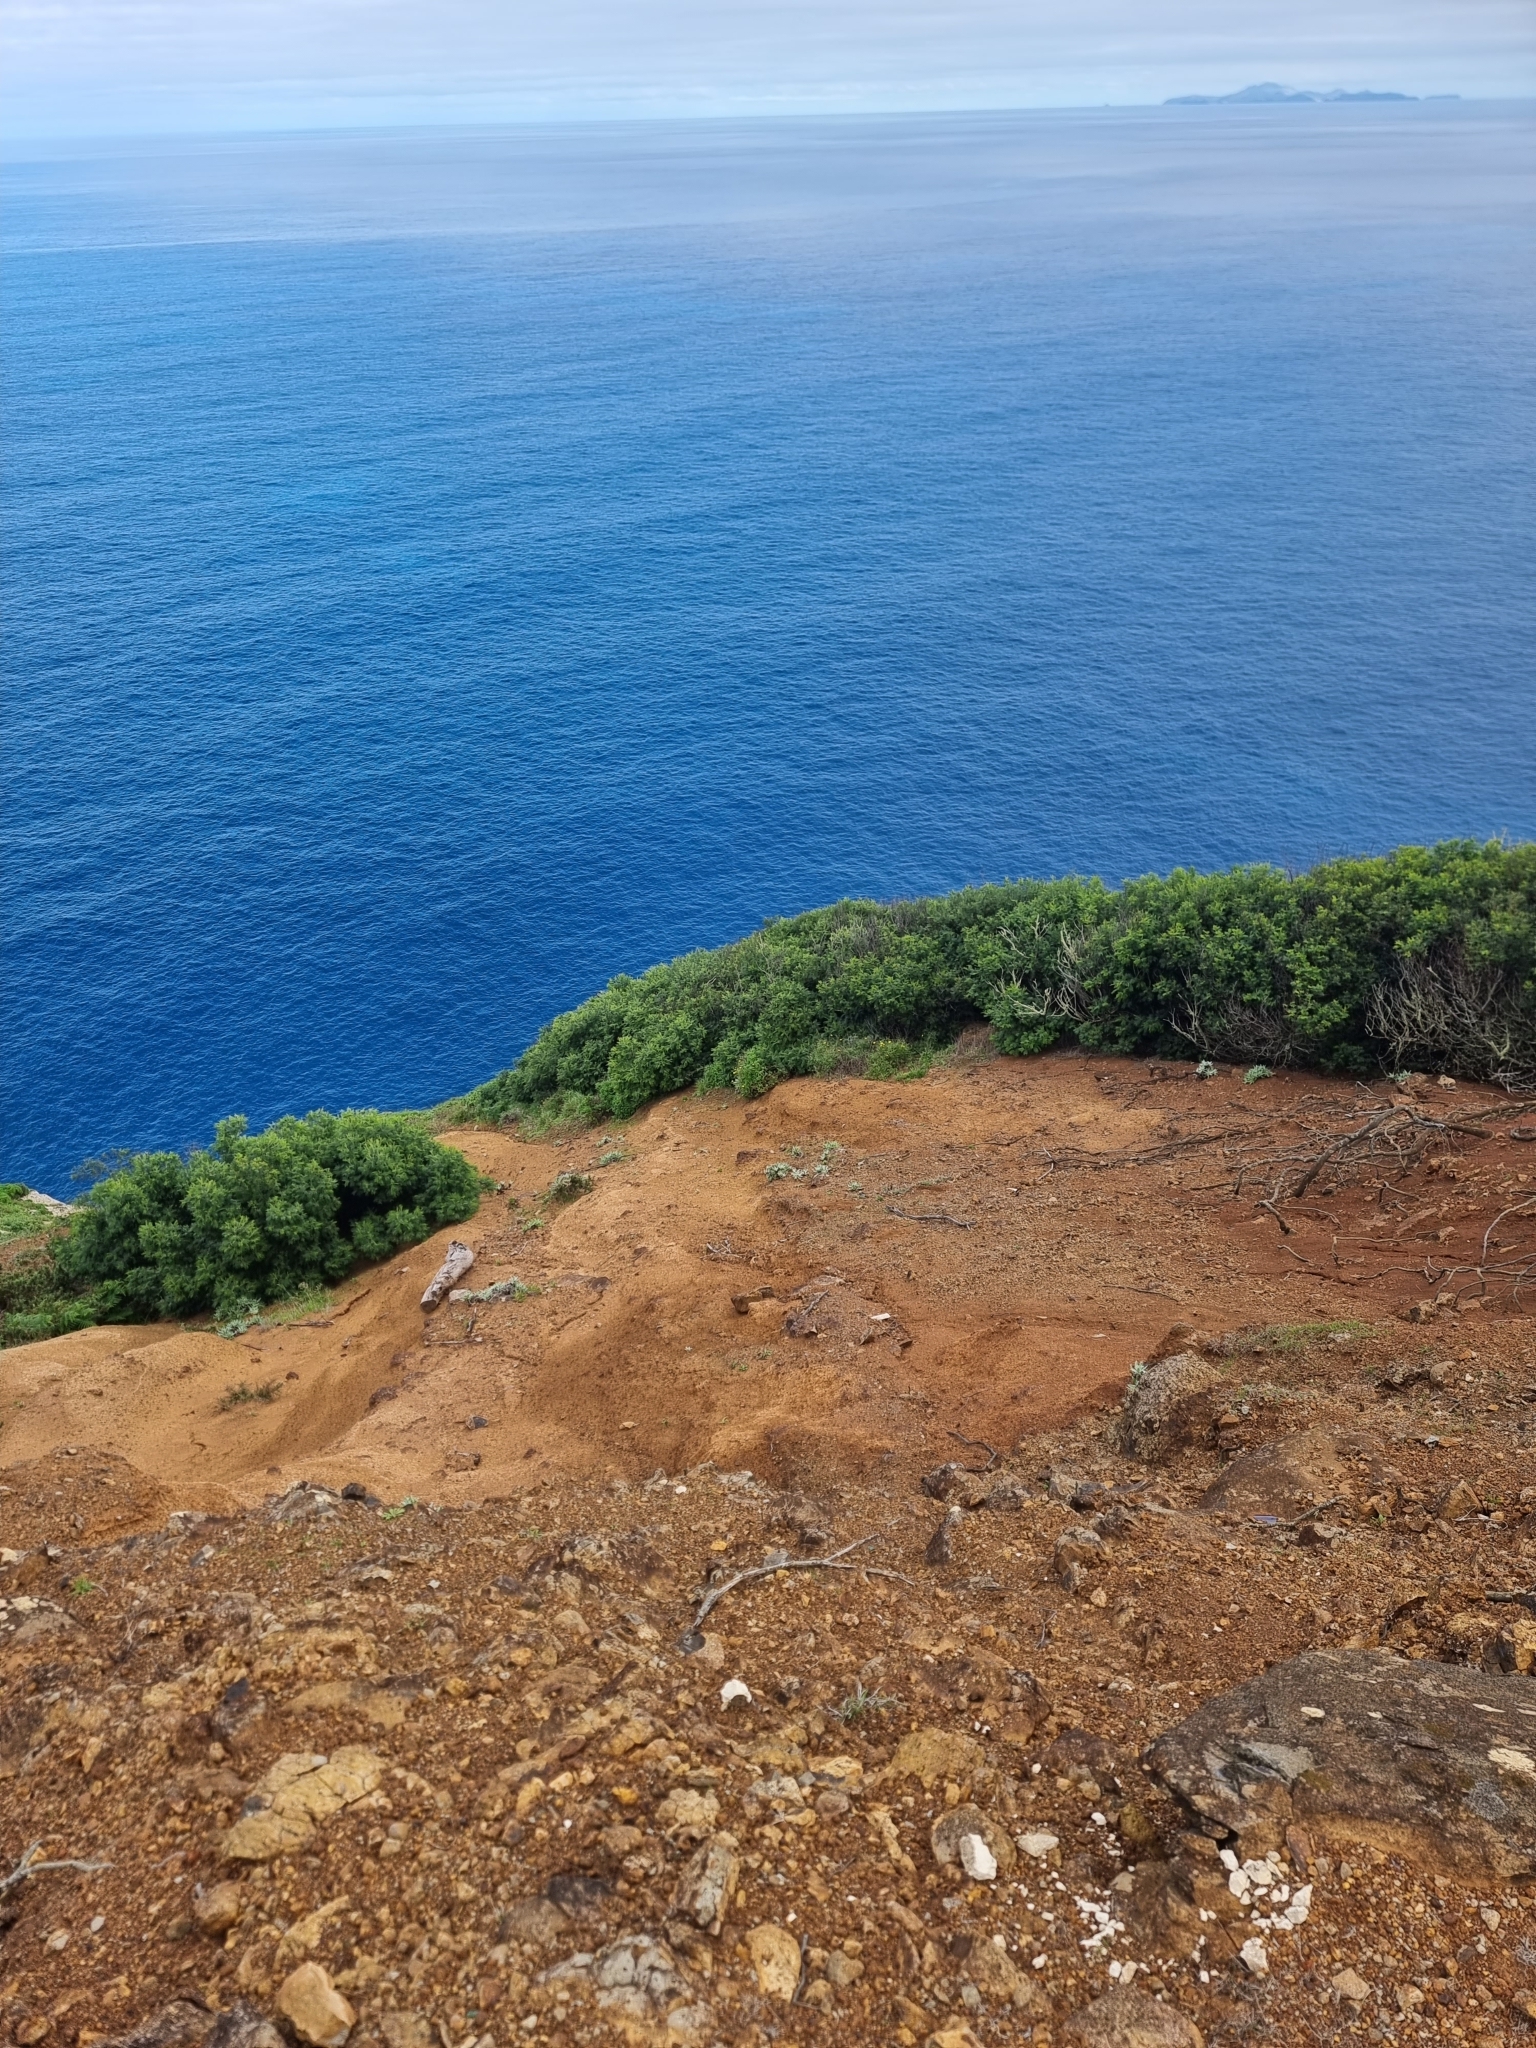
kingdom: Plantae
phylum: Tracheophyta
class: Magnoliopsida
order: Fabales
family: Fabaceae
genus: Acacia
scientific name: Acacia mearnsii
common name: Black wattle
